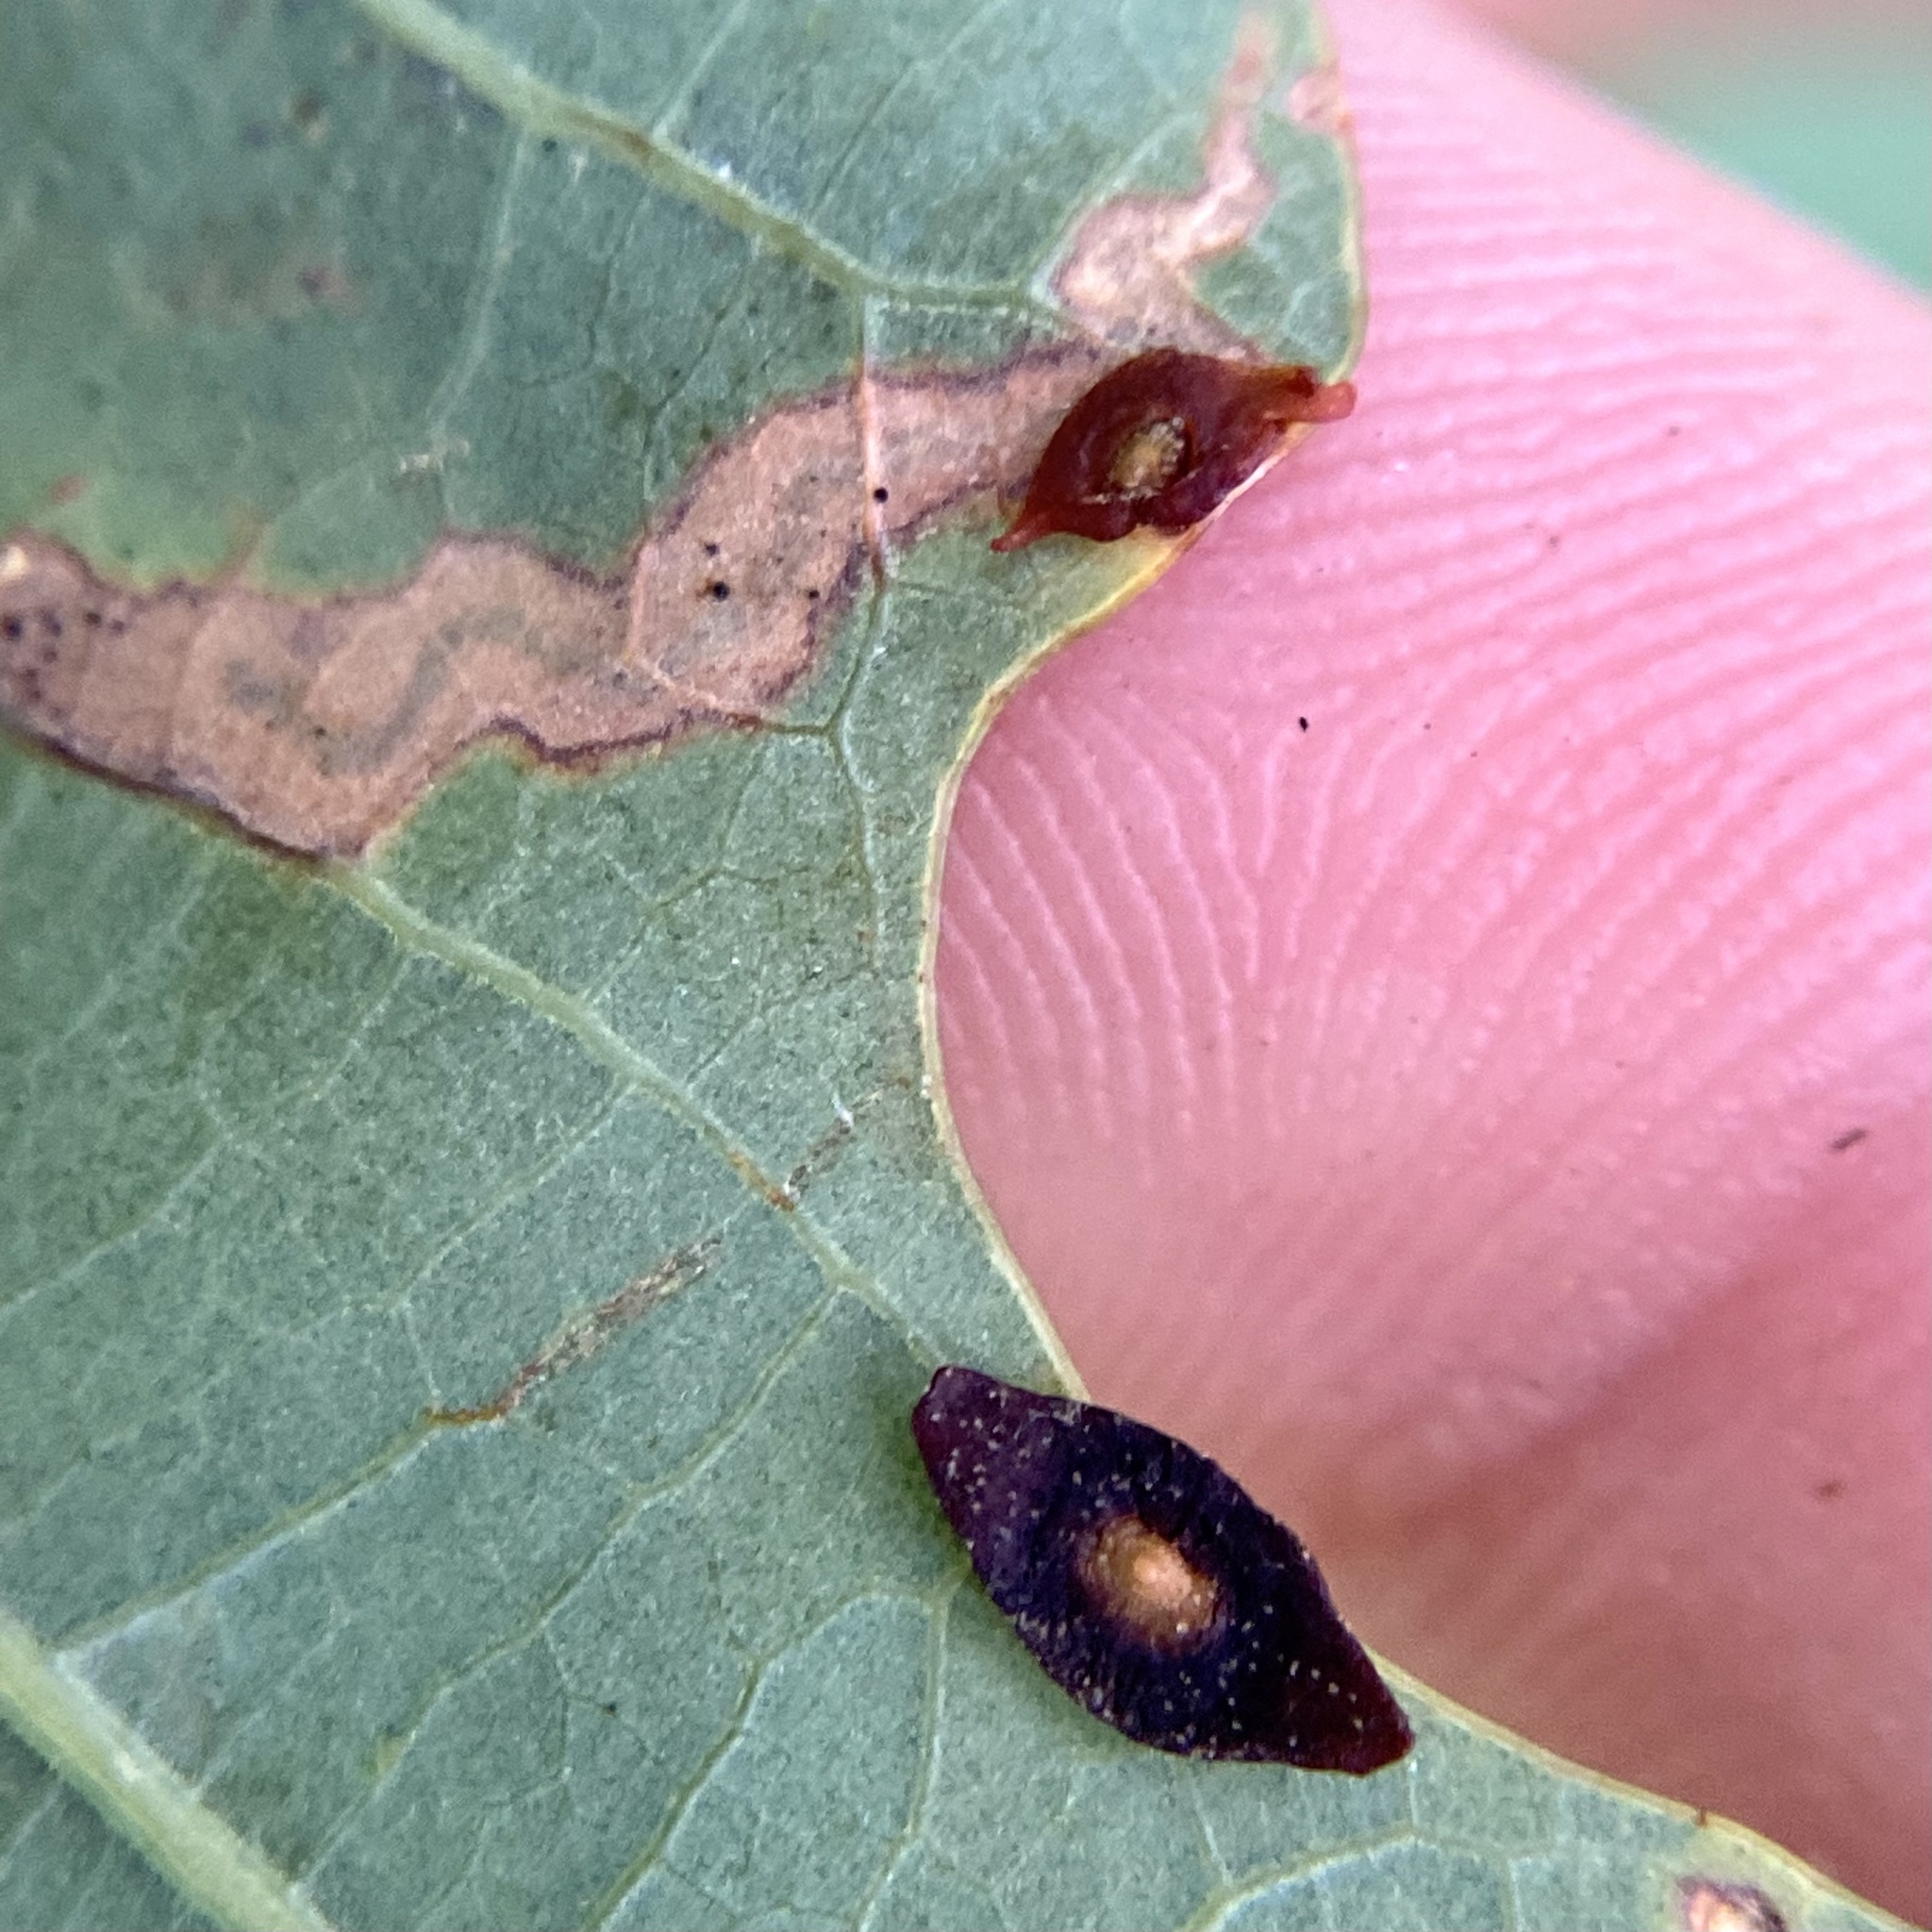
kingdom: Animalia
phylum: Arthropoda
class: Insecta
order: Hymenoptera
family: Cynipidae
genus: Phylloteras
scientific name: Phylloteras
